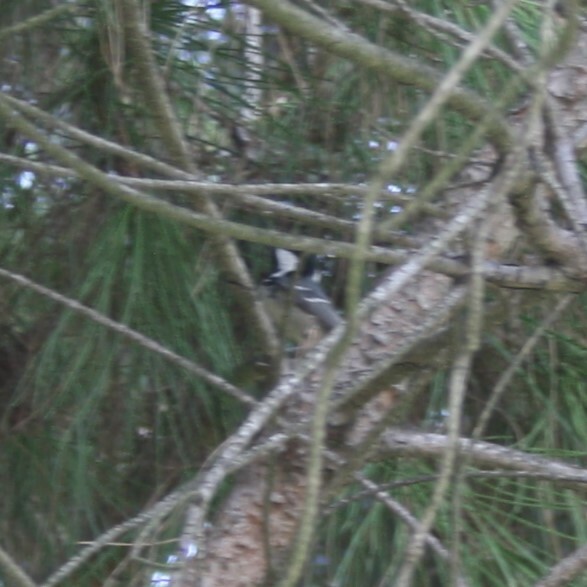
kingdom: Animalia
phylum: Chordata
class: Aves
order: Passeriformes
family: Paridae
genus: Periparus
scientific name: Periparus ater
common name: Coal tit
